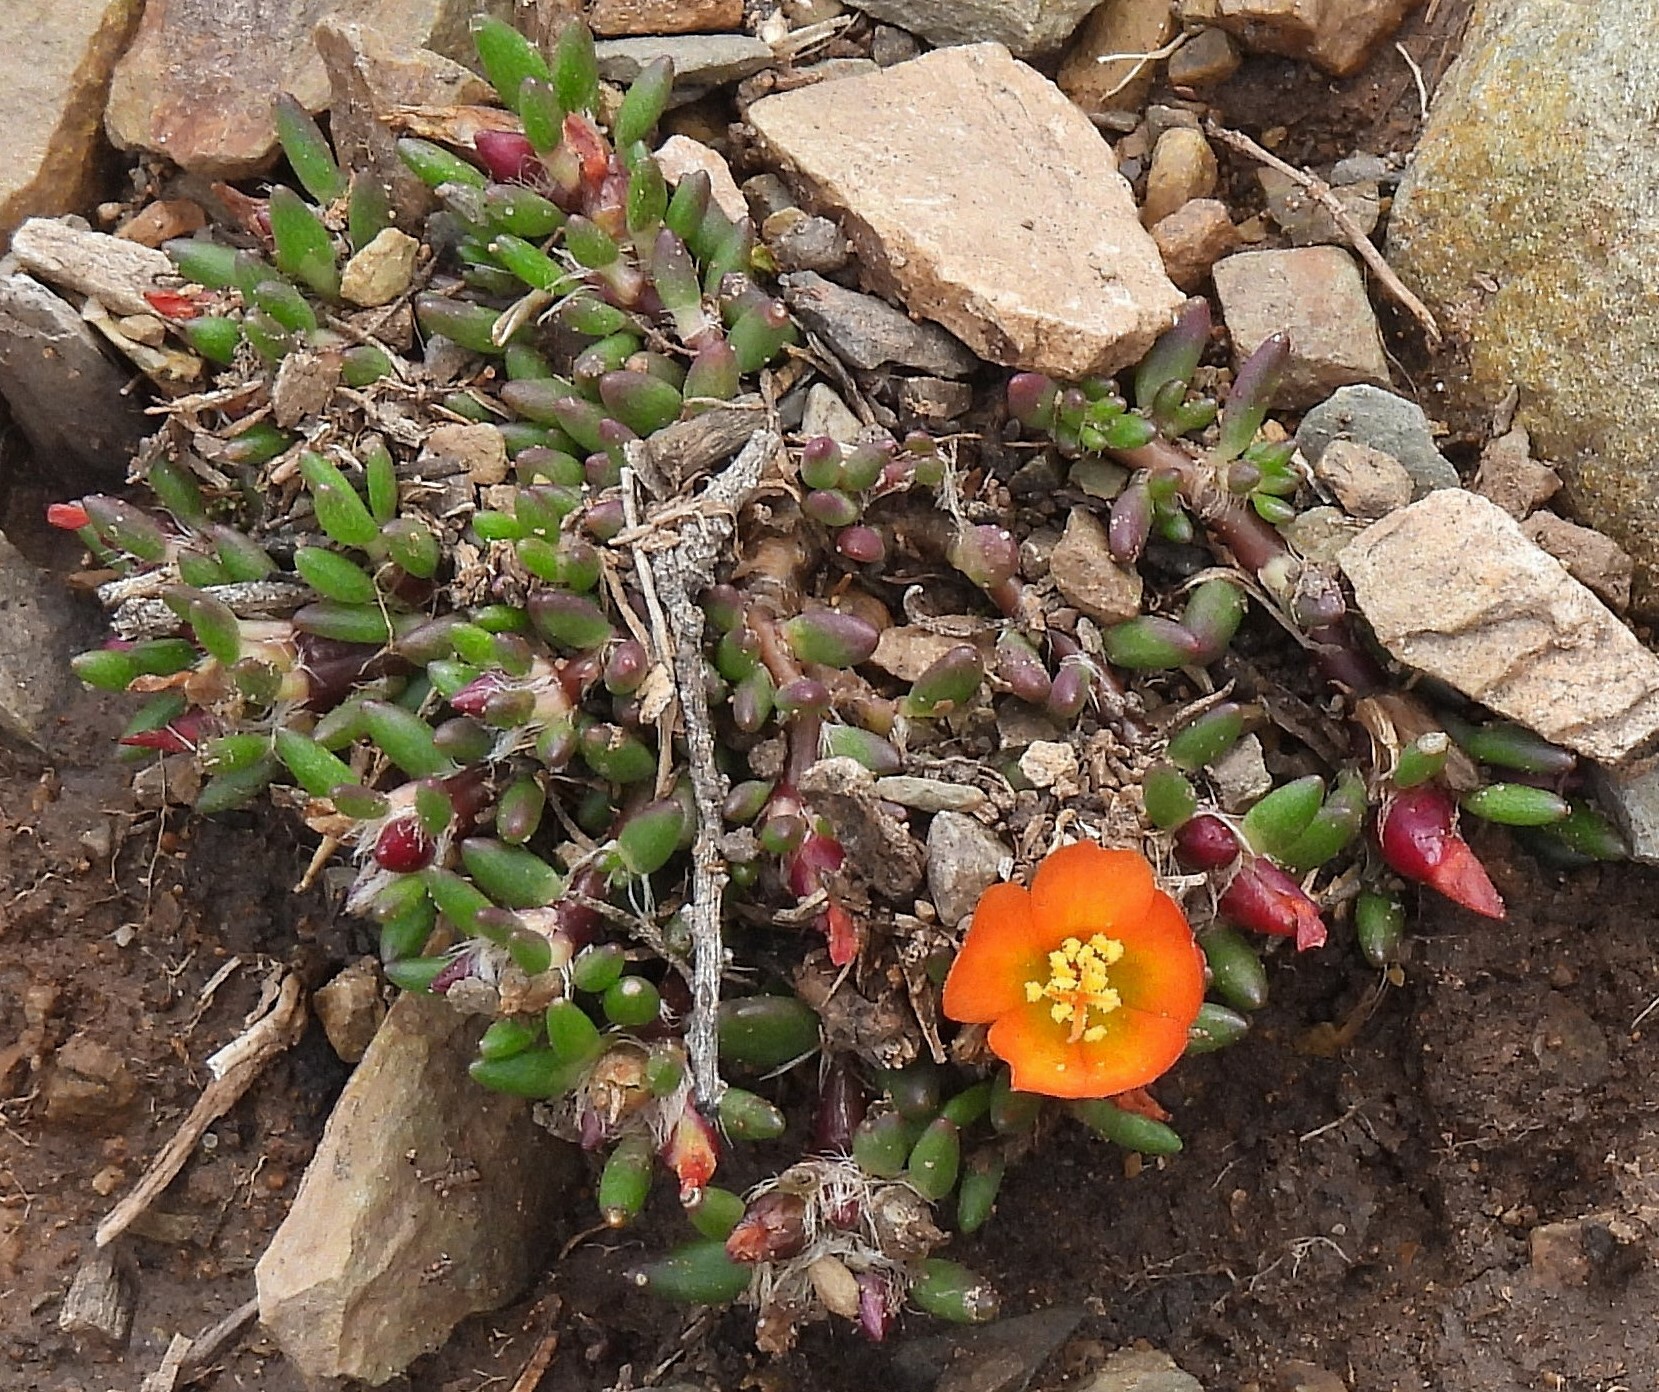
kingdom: Plantae
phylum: Tracheophyta
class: Magnoliopsida
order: Caryophyllales
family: Portulacaceae
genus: Portulaca
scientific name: Portulaca perennis
